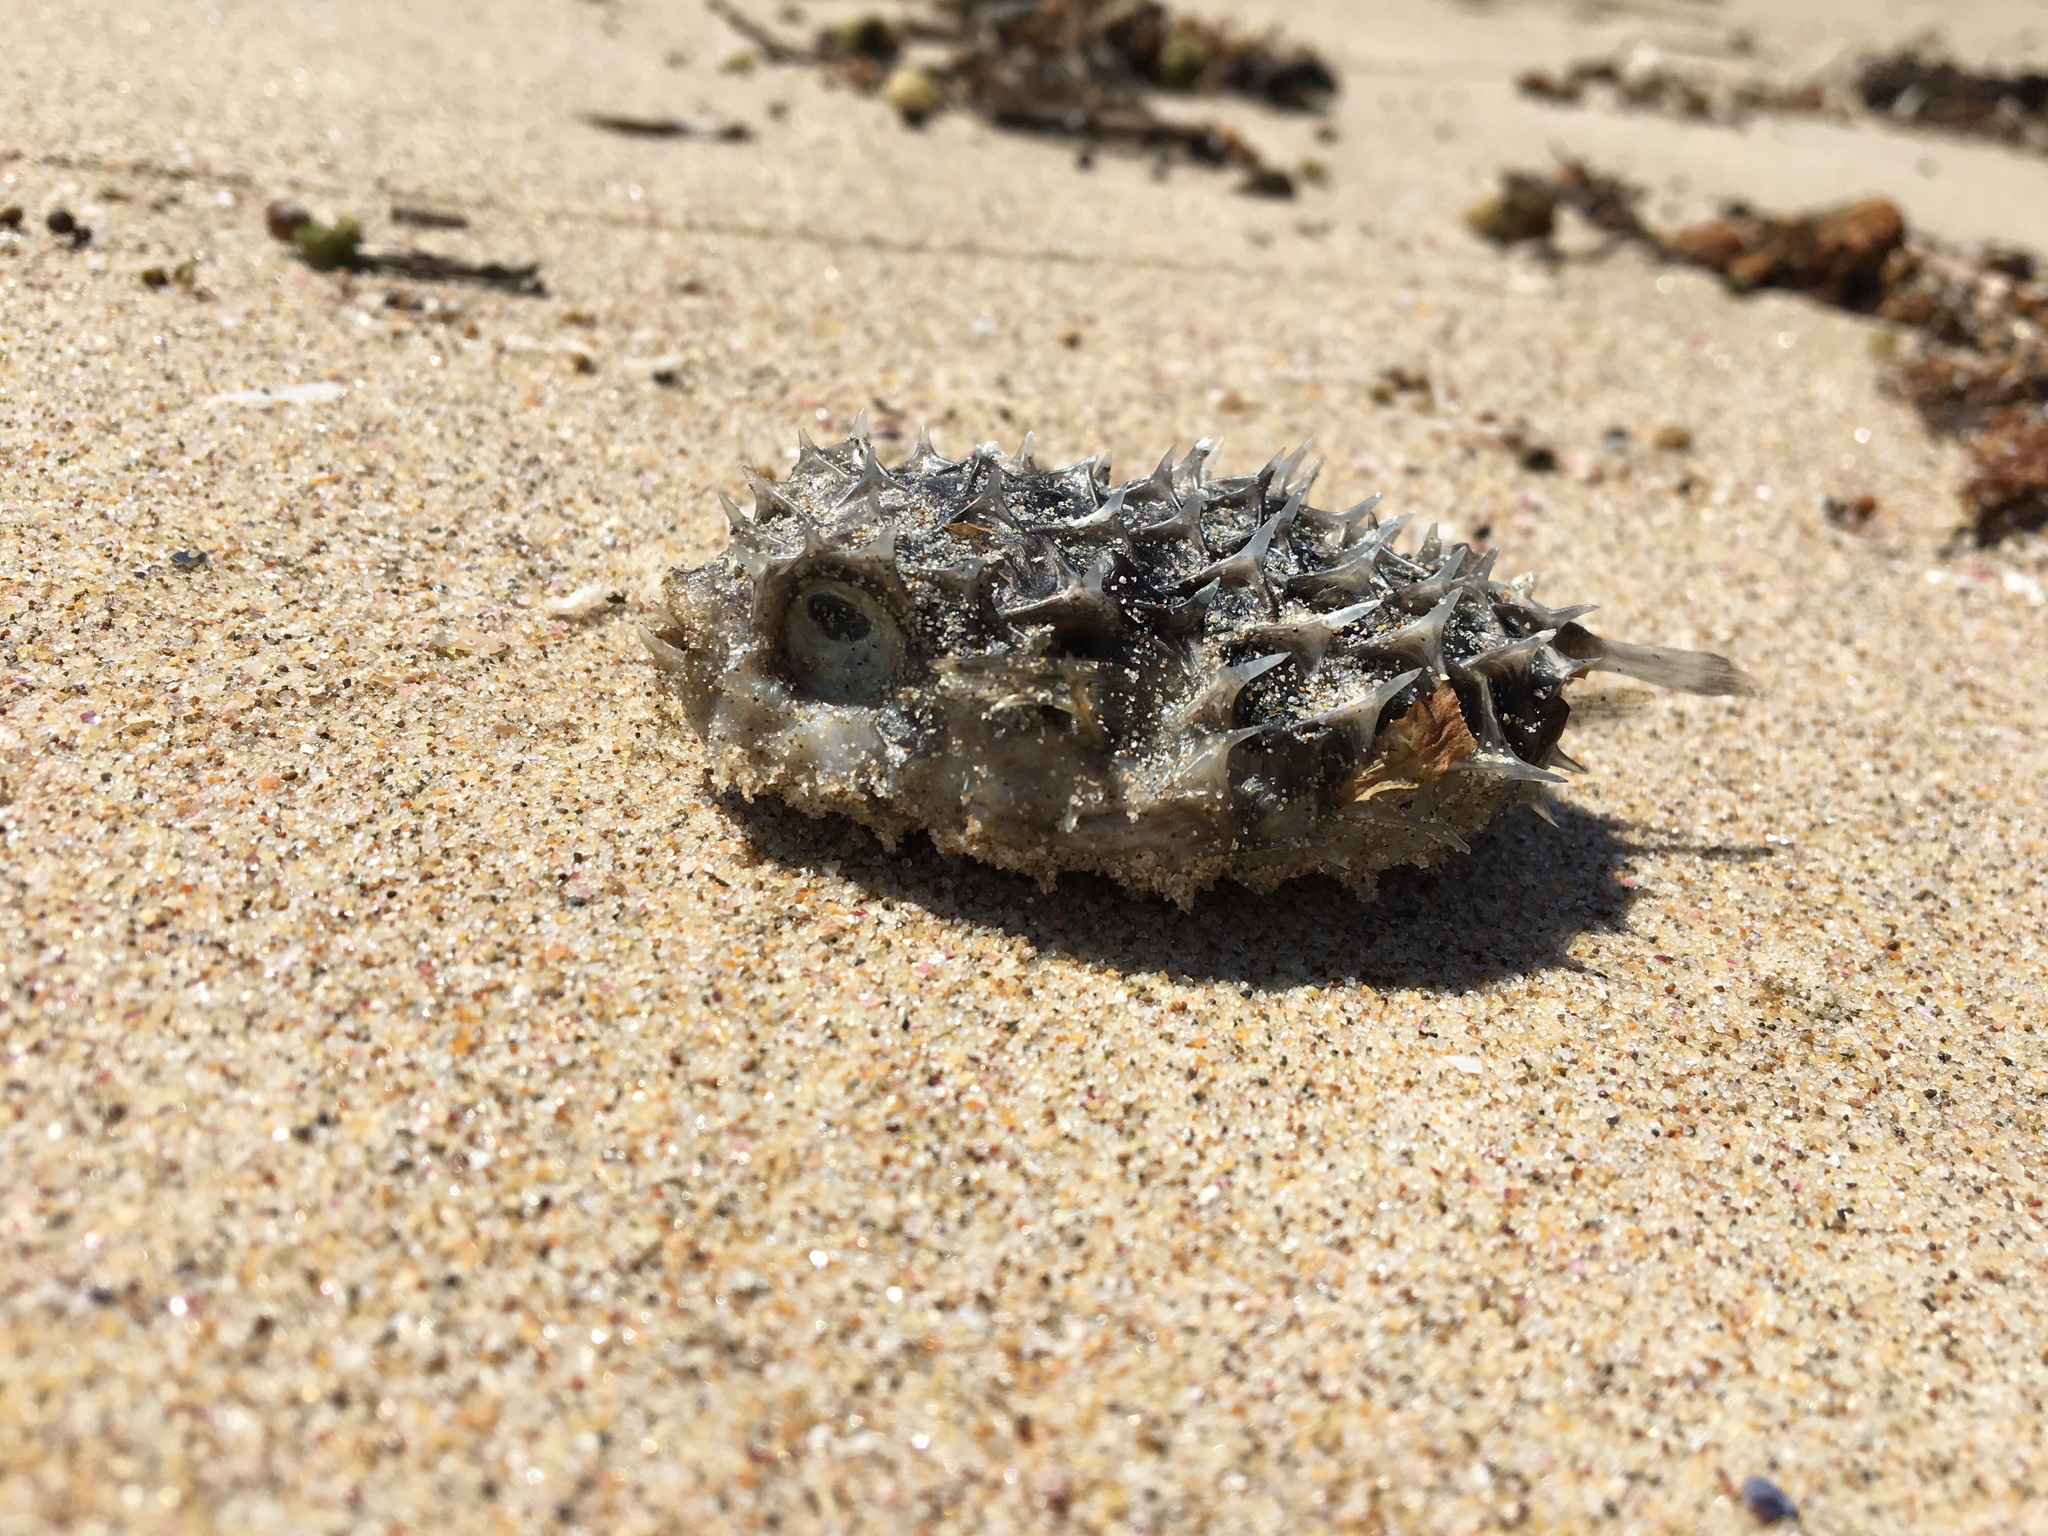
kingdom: Animalia
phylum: Chordata
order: Tetraodontiformes
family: Diodontidae
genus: Cyclichthys
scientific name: Cyclichthys orbicularis
